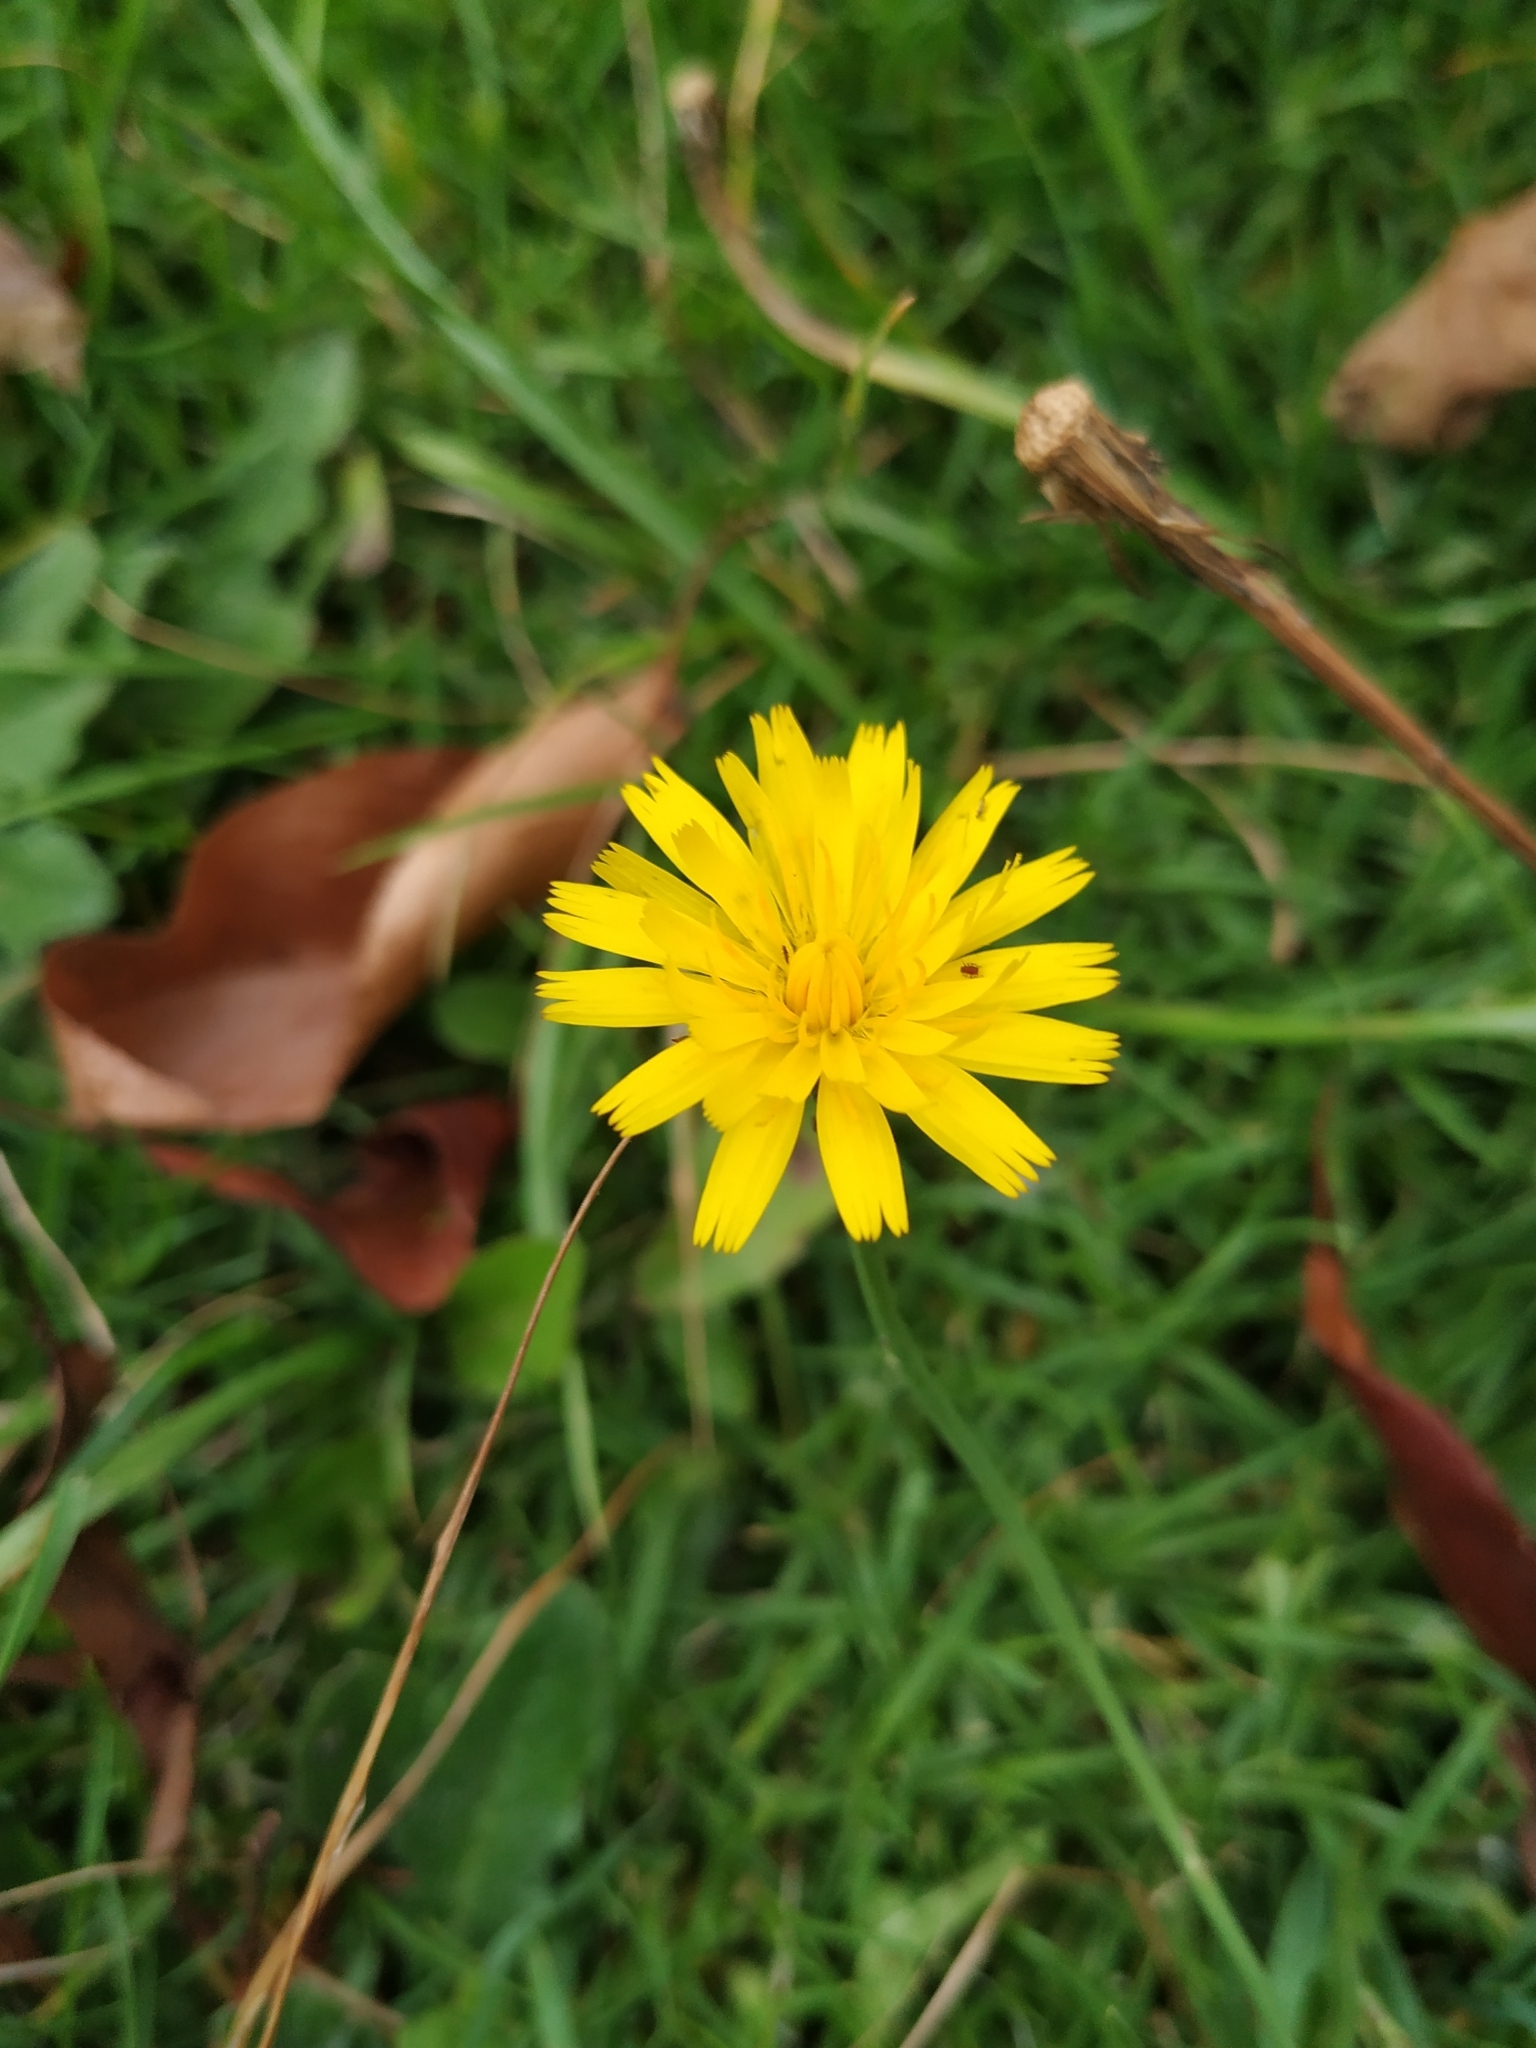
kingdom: Plantae
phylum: Tracheophyta
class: Magnoliopsida
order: Asterales
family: Asteraceae
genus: Hypochaeris
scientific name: Hypochaeris radicata
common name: Flatweed
